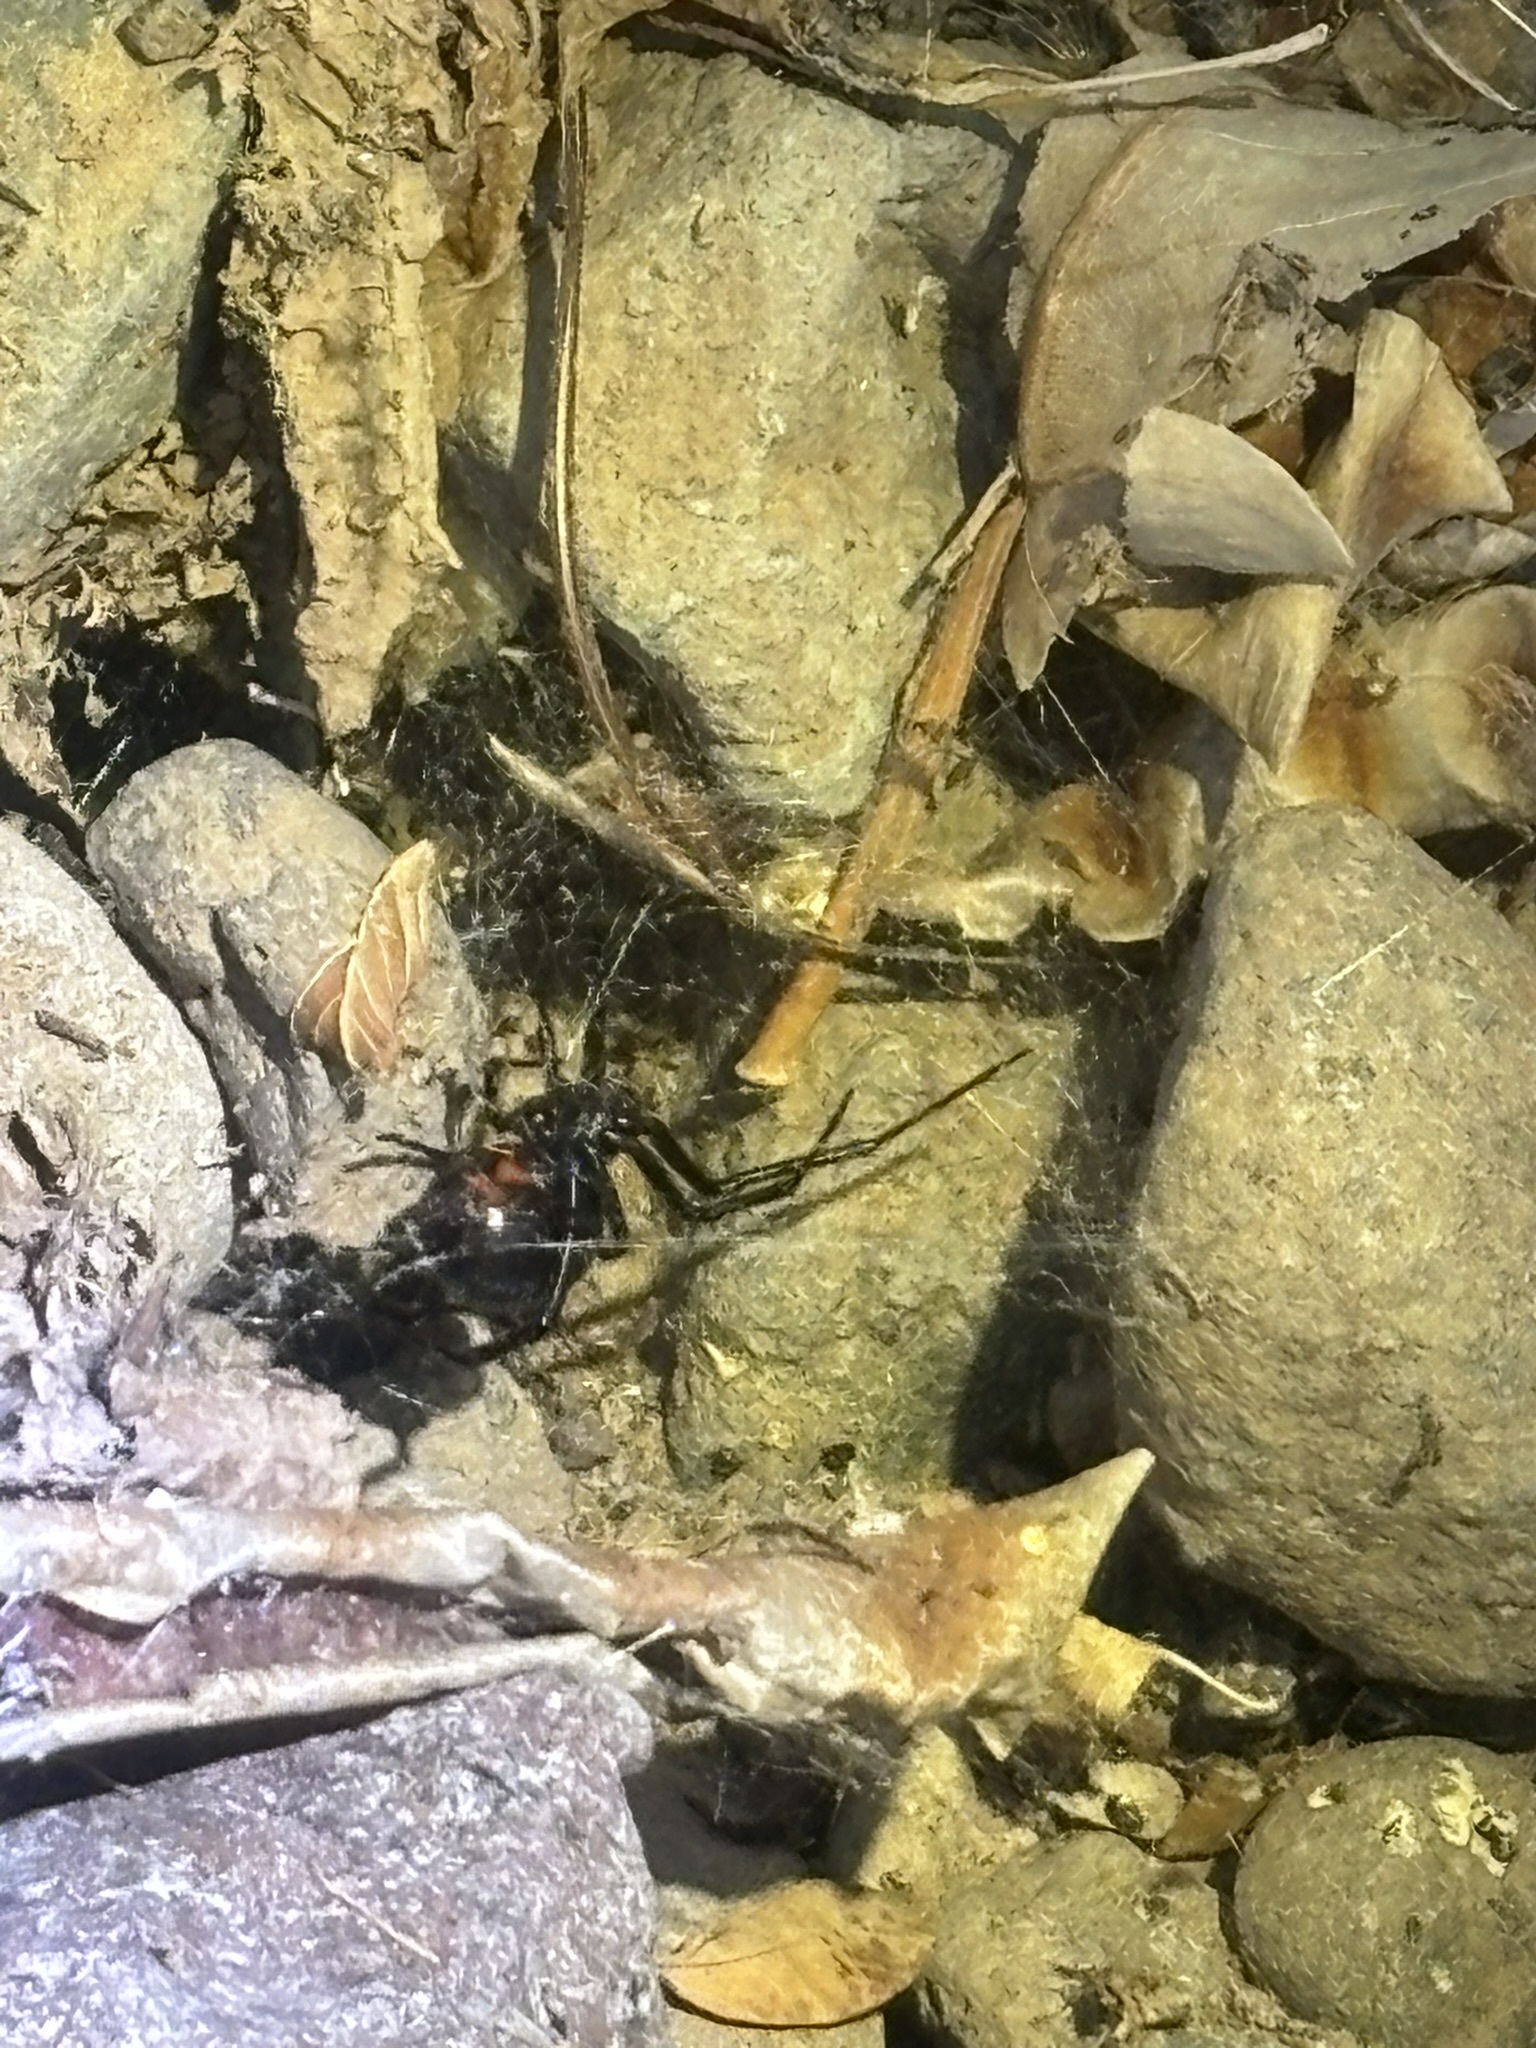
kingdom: Animalia
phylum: Arthropoda
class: Arachnida
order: Araneae
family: Theridiidae
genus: Latrodectus
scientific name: Latrodectus hesperus
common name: Western black widow
